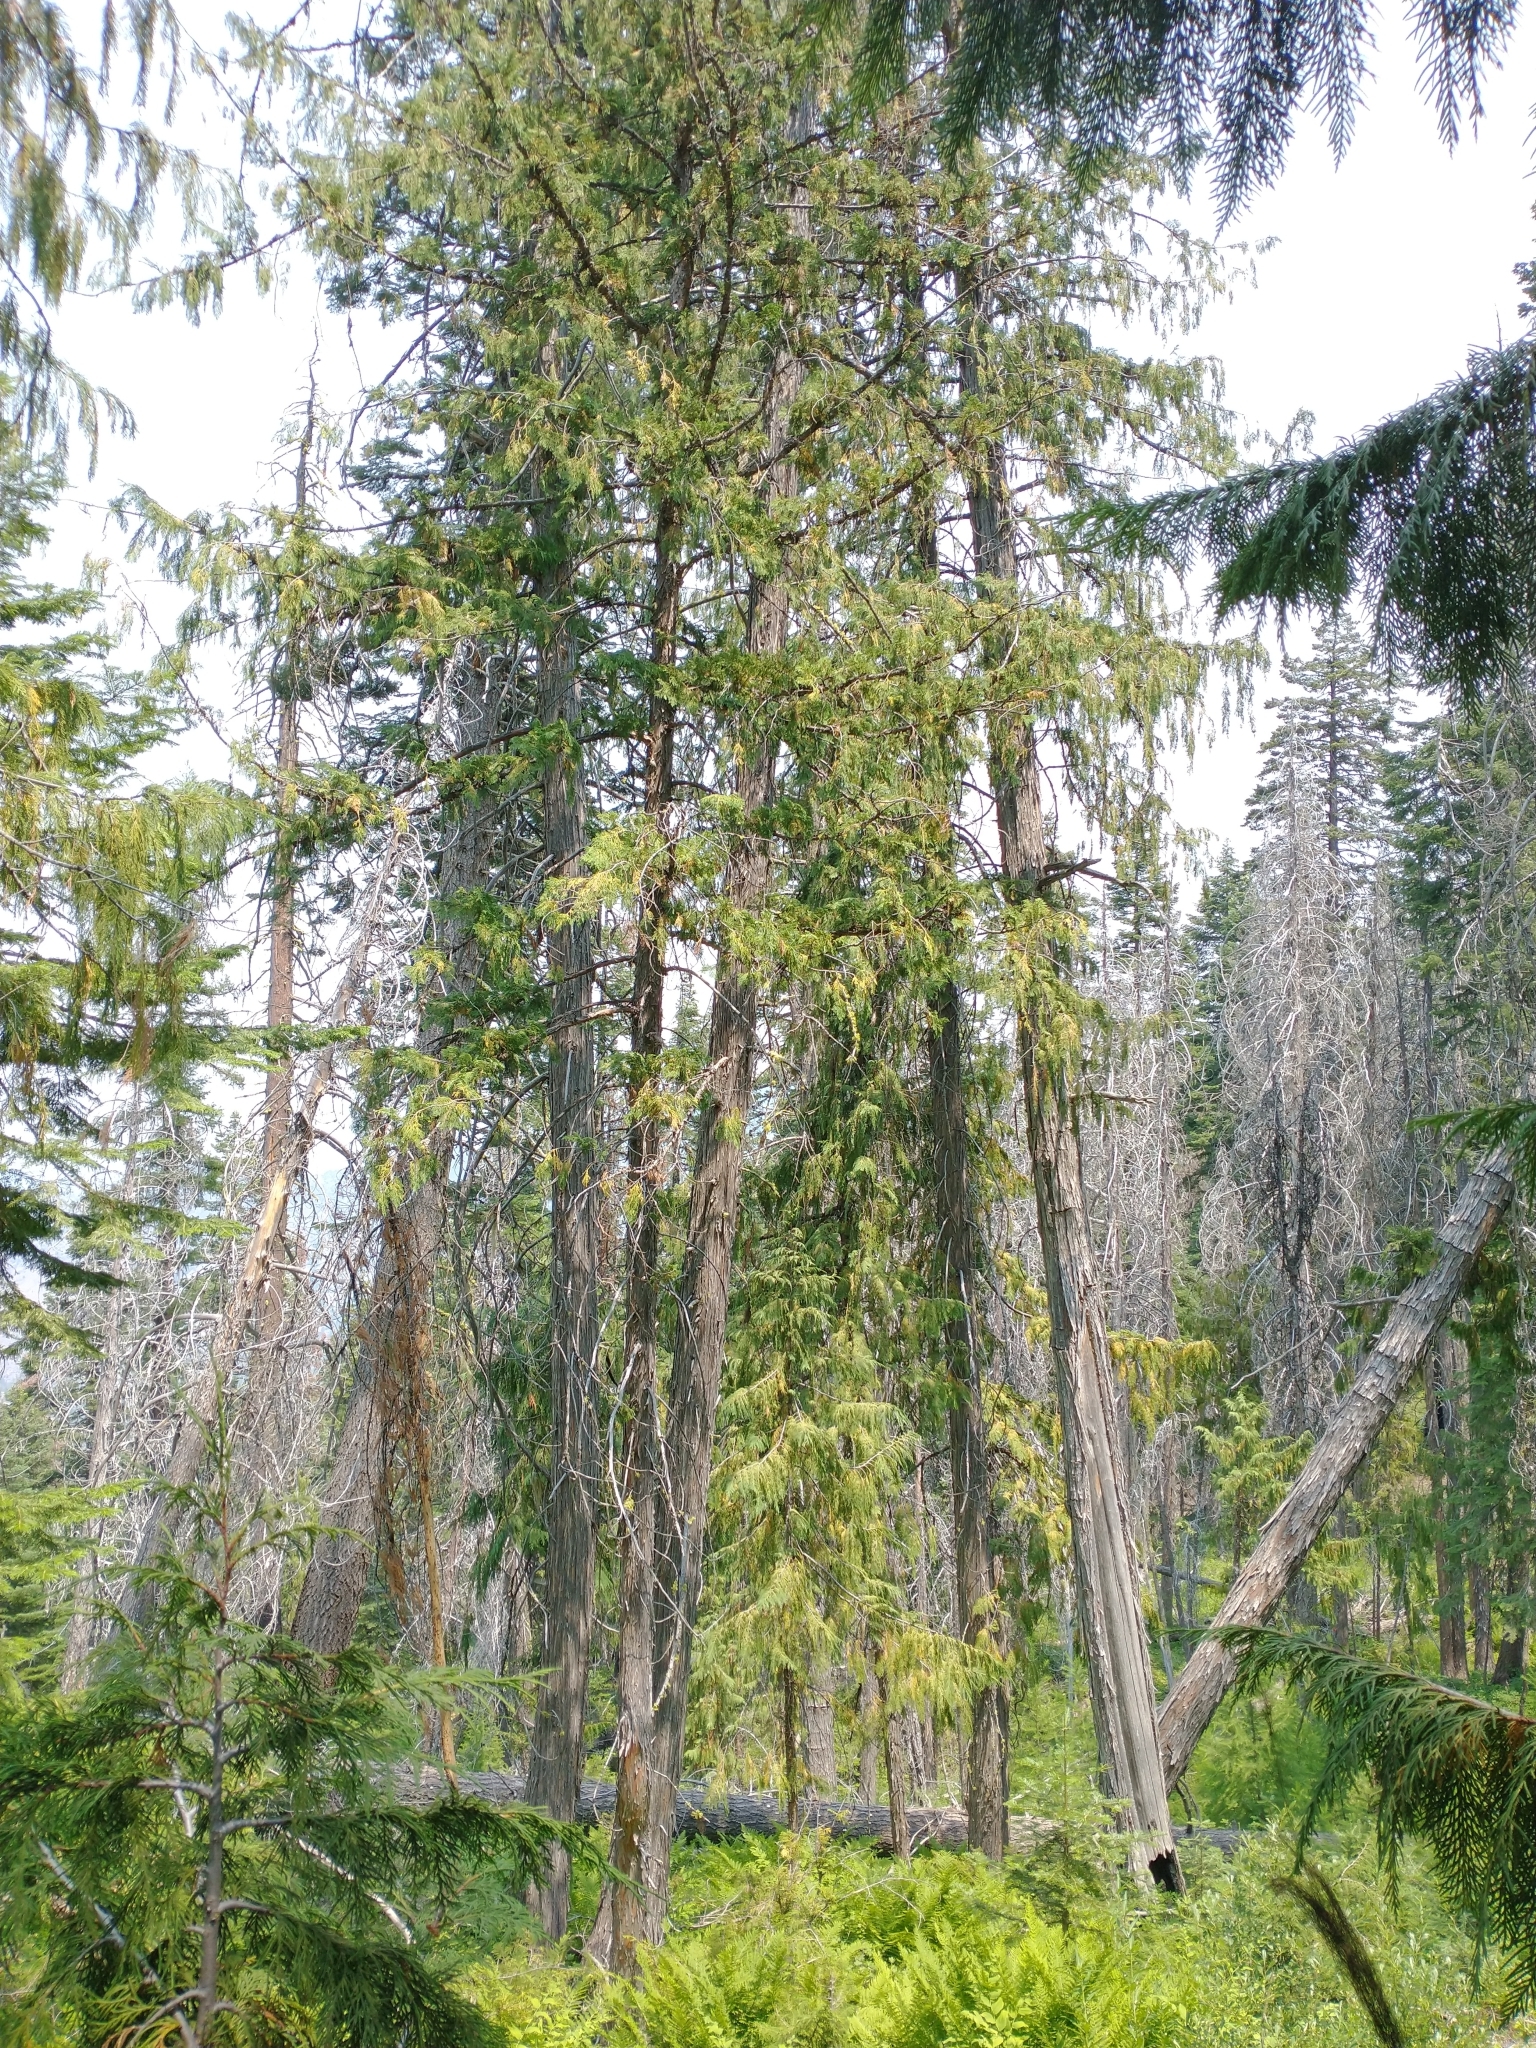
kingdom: Plantae
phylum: Tracheophyta
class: Pinopsida
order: Pinales
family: Cupressaceae
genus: Xanthocyparis
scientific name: Xanthocyparis nootkatensis
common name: Nootka cypress
